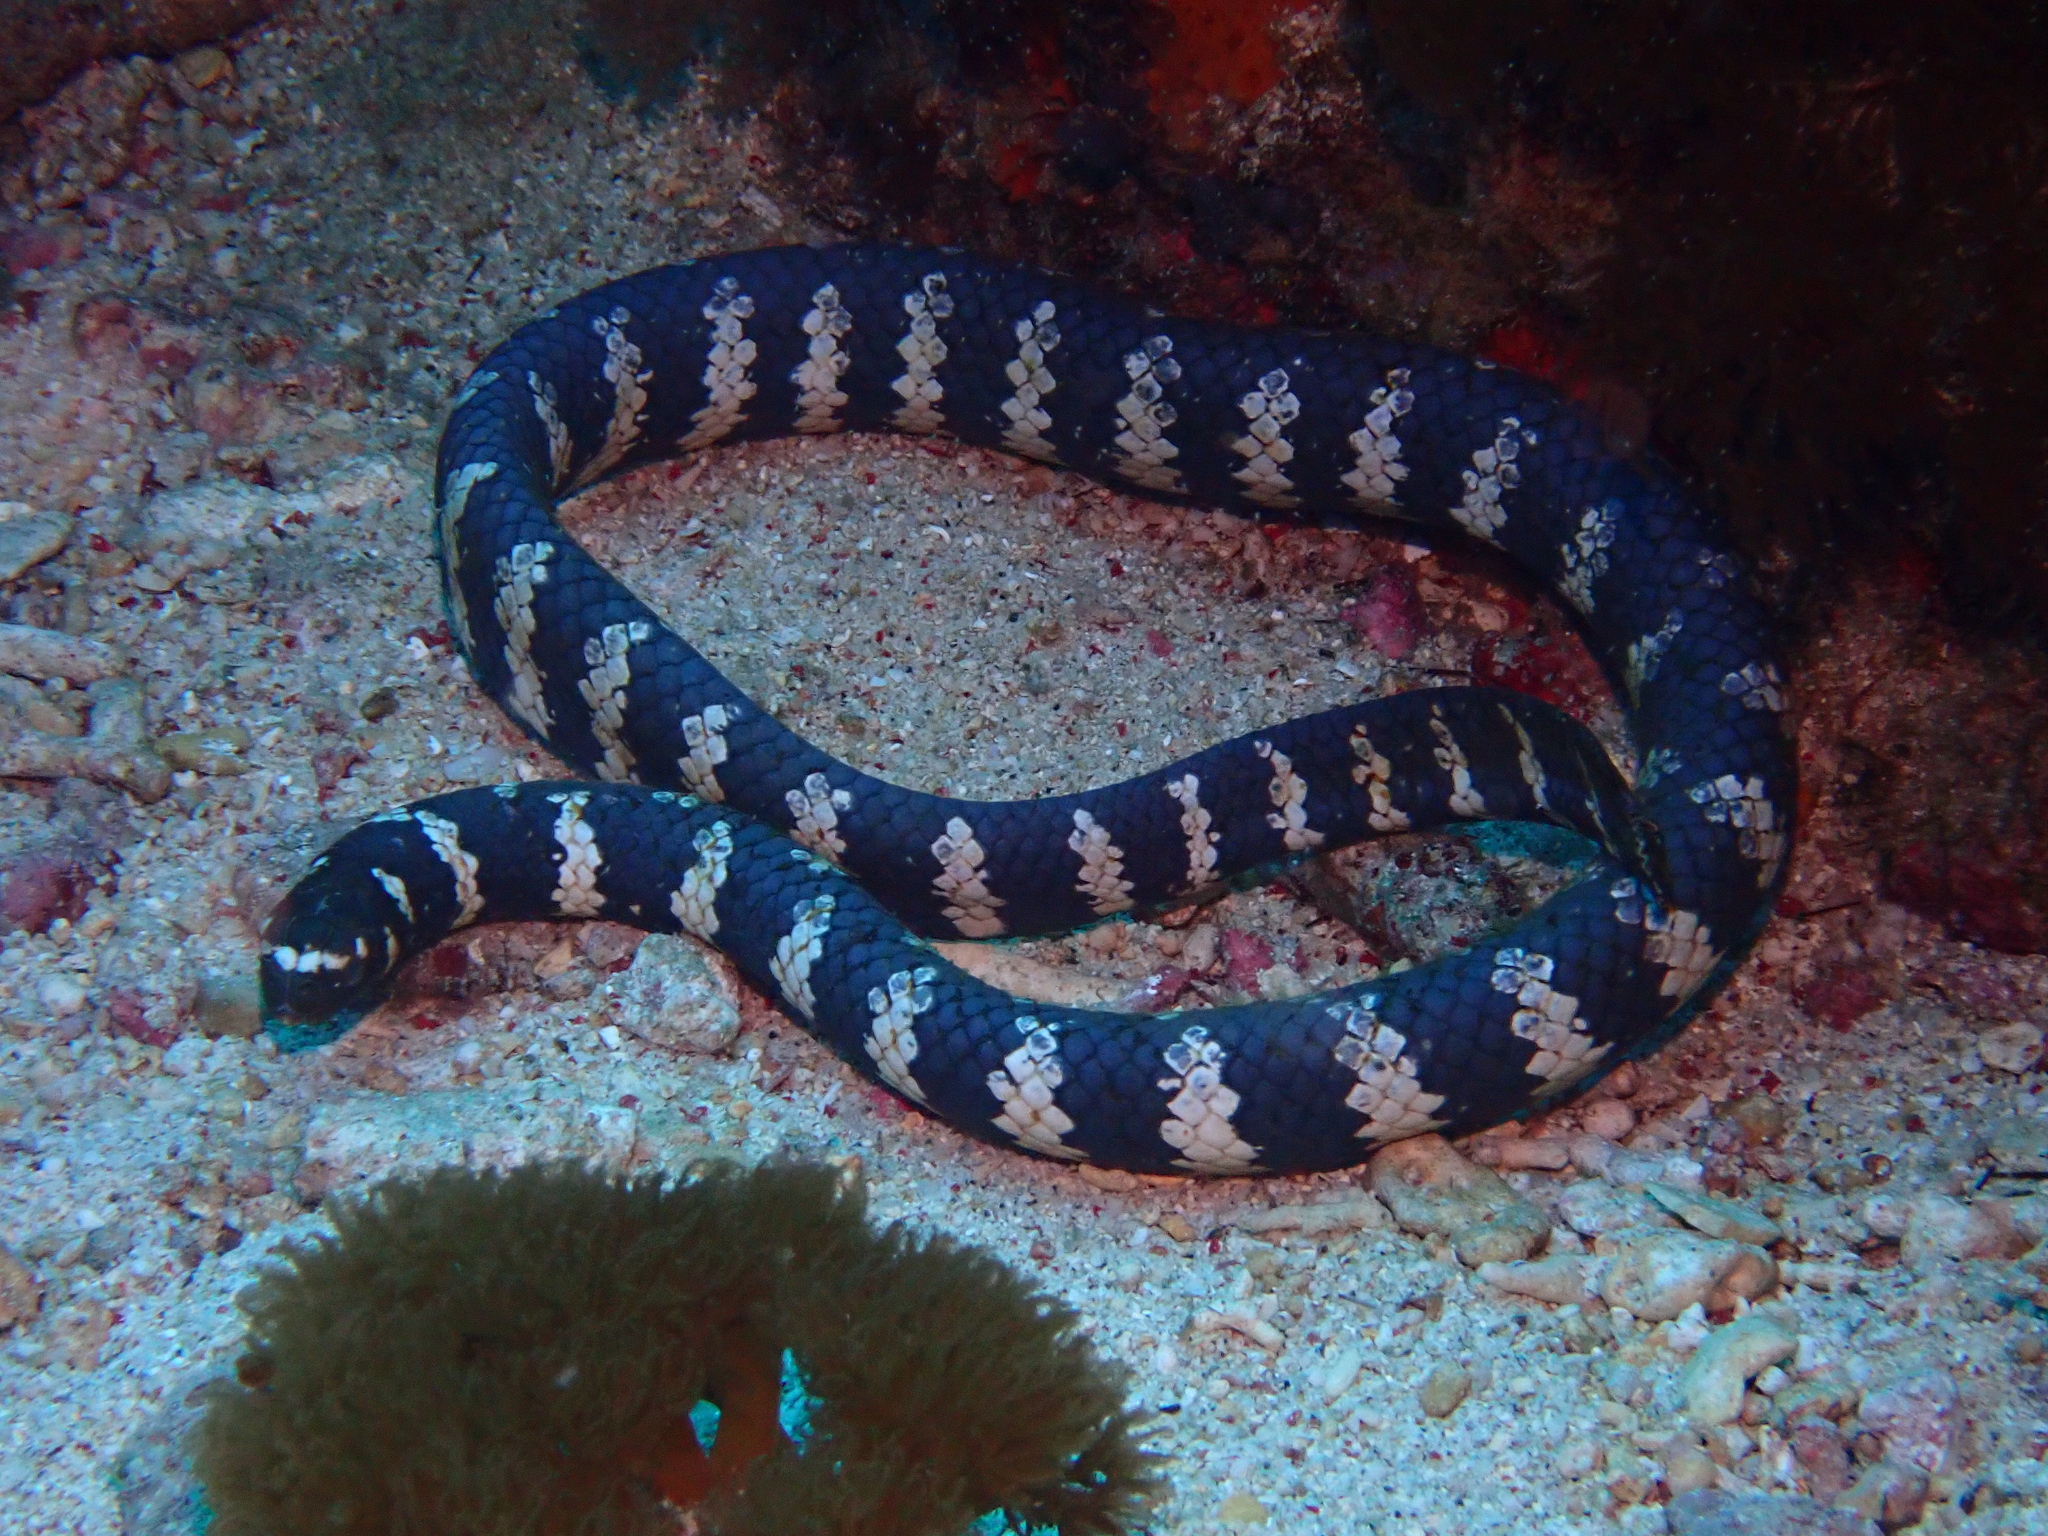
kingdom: Animalia
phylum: Chordata
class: Squamata
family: Elapidae
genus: Emydocephalus
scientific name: Emydocephalus ijimae
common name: Turtlehead sea snake
